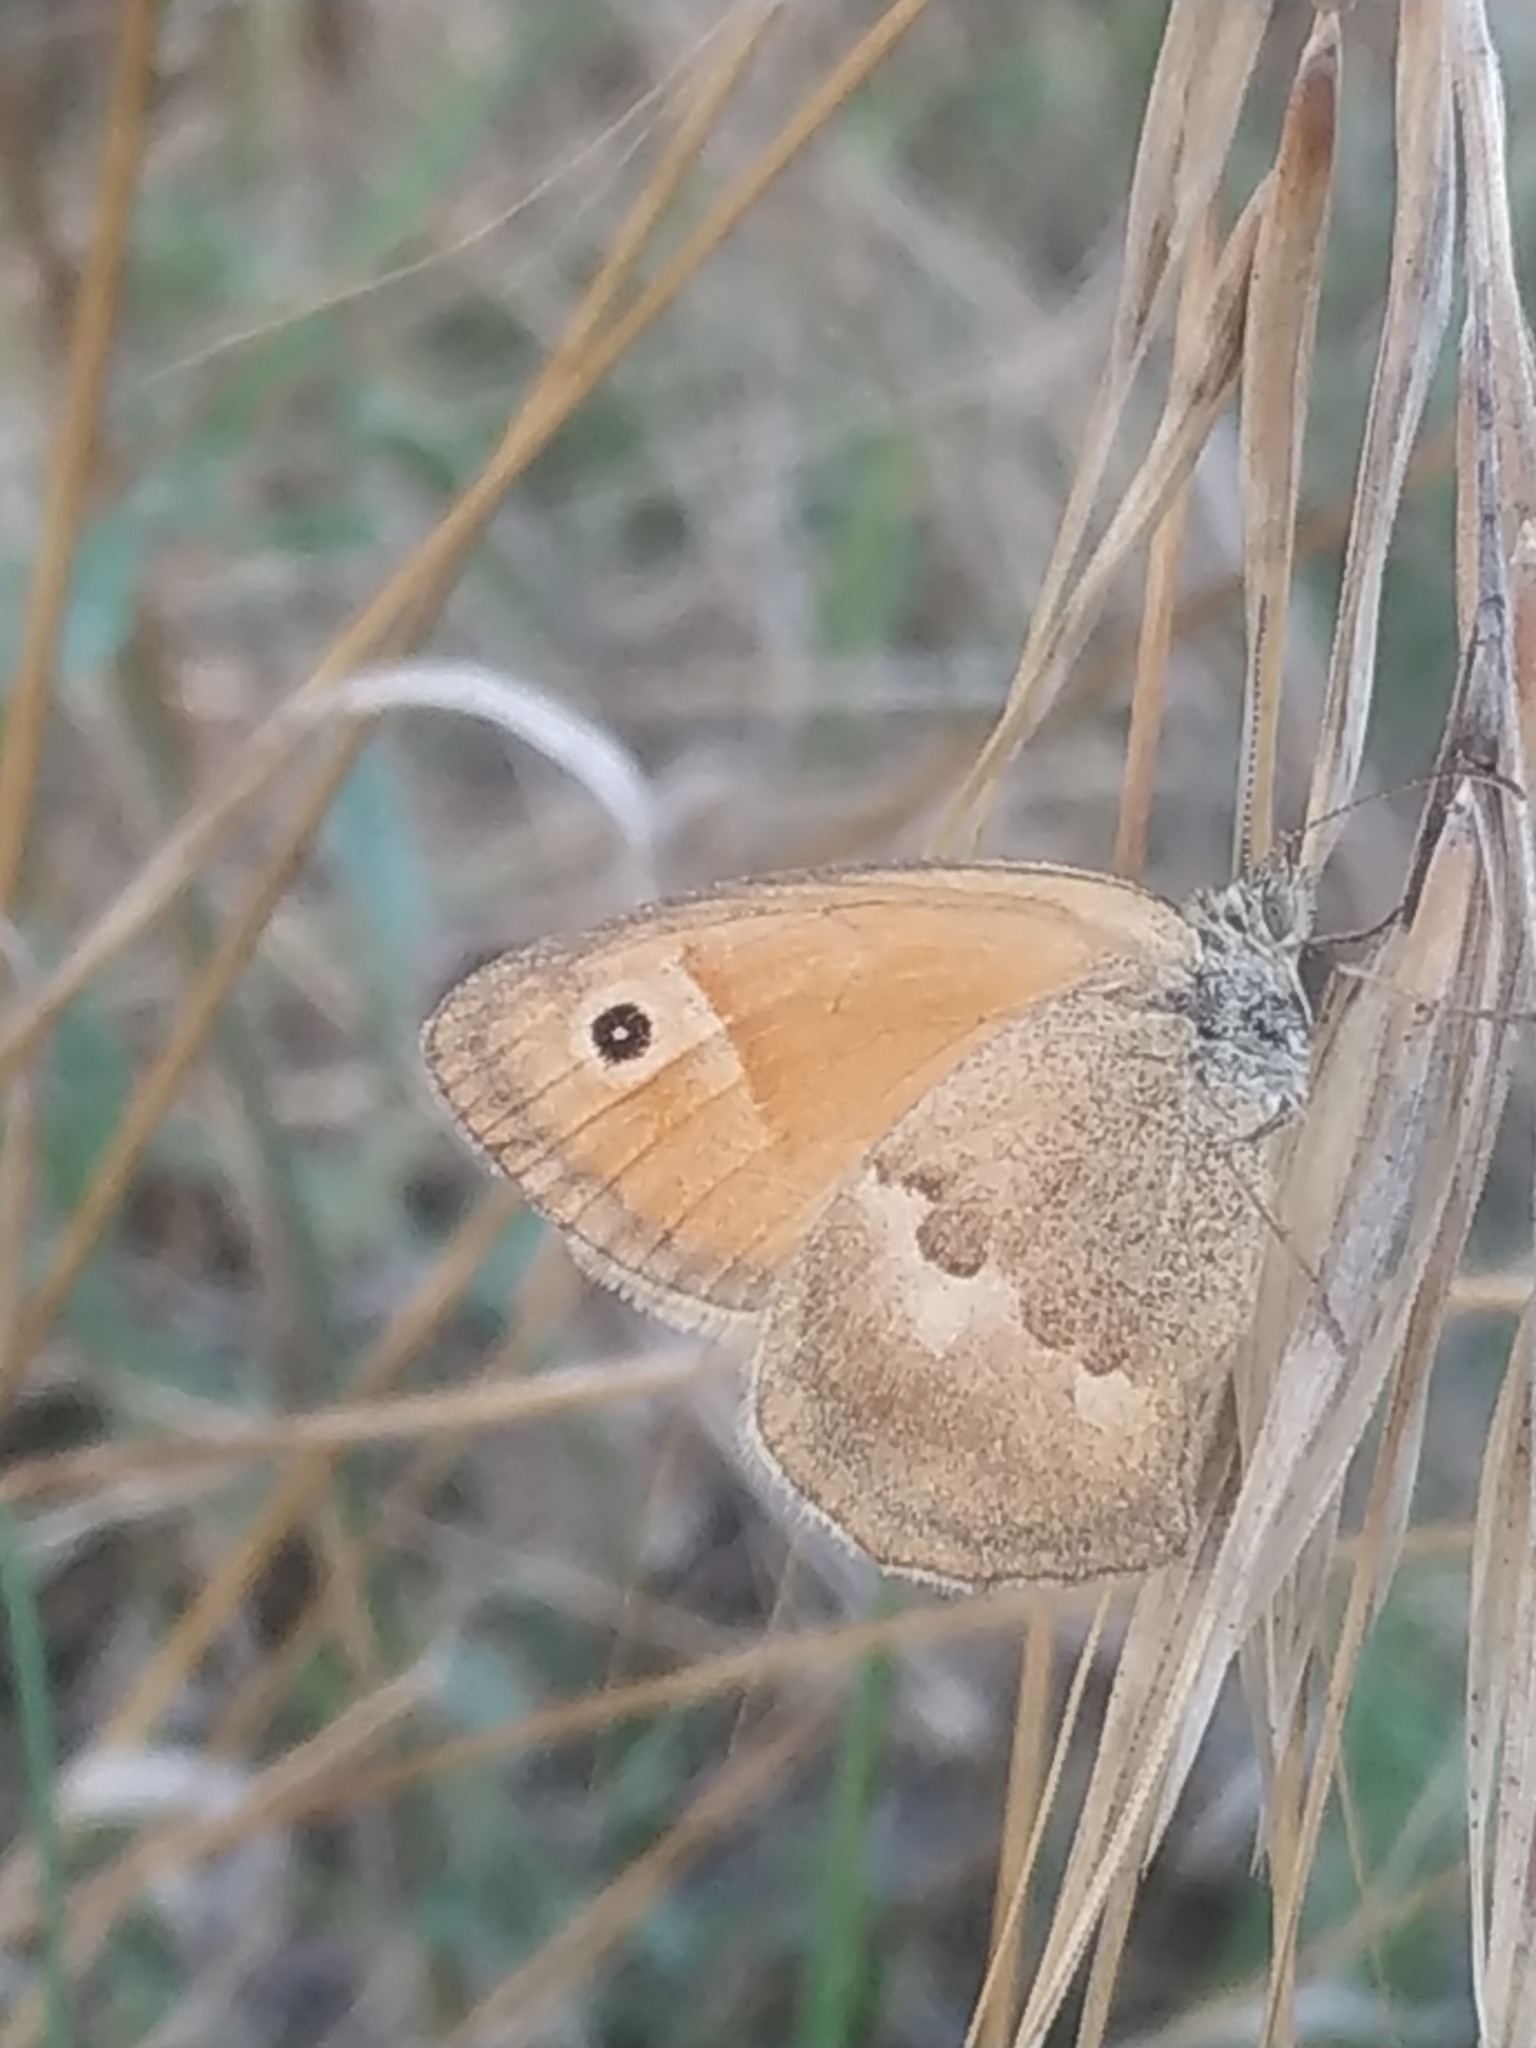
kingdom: Animalia
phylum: Arthropoda
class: Insecta
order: Lepidoptera
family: Nymphalidae
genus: Coenonympha
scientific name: Coenonympha pamphilus
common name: Small heath
